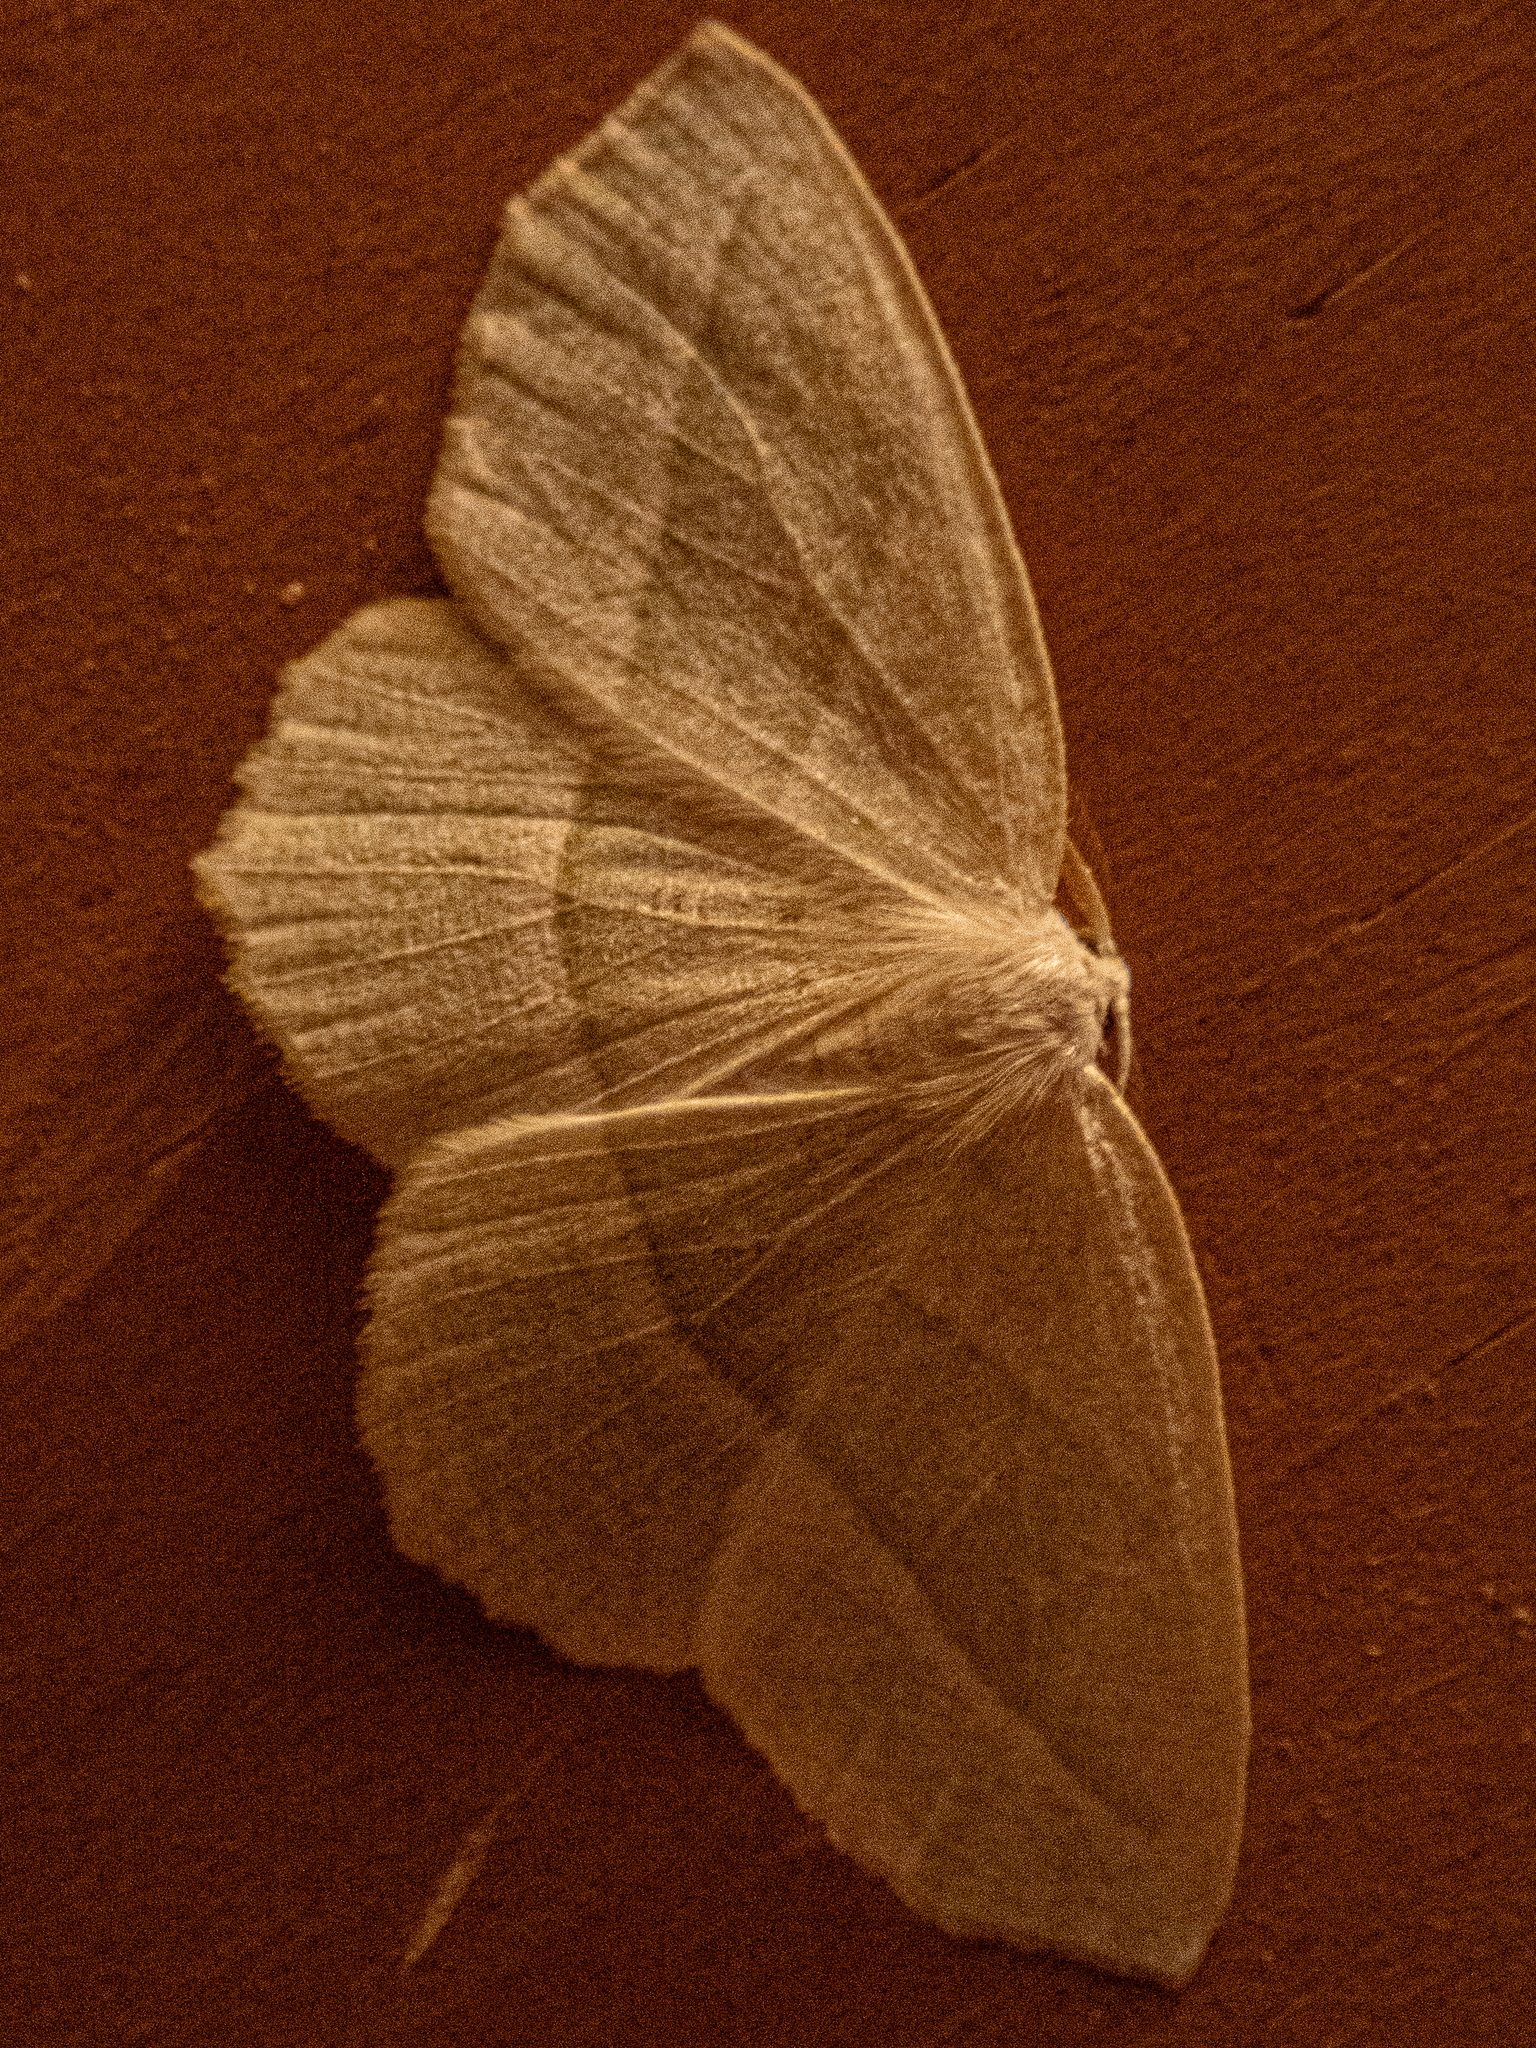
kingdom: Animalia
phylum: Arthropoda
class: Insecta
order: Lepidoptera
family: Geometridae
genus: Campaea
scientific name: Campaea perlata
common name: Fringed looper
